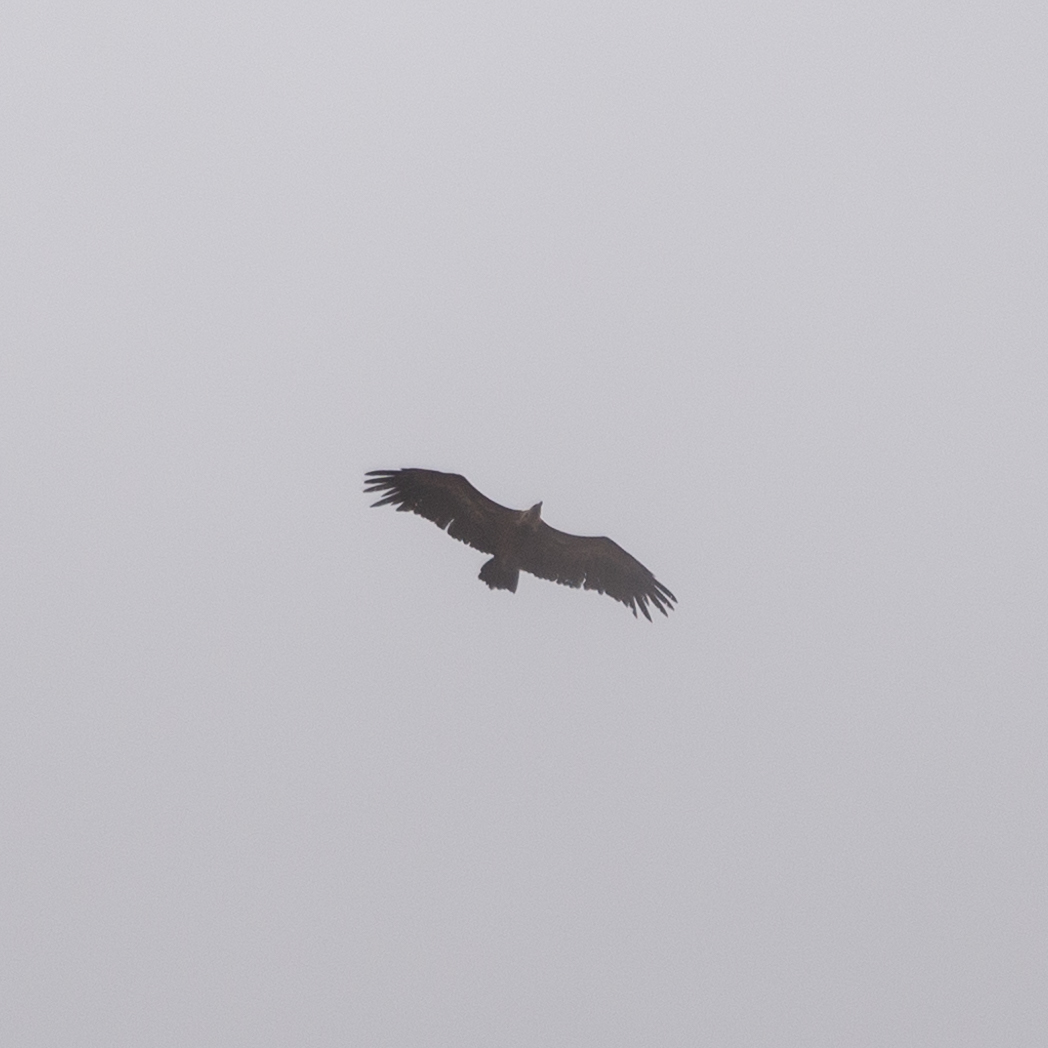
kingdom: Animalia
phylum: Chordata
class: Aves
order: Accipitriformes
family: Accipitridae
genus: Gyps
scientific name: Gyps fulvus
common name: Griffon vulture
